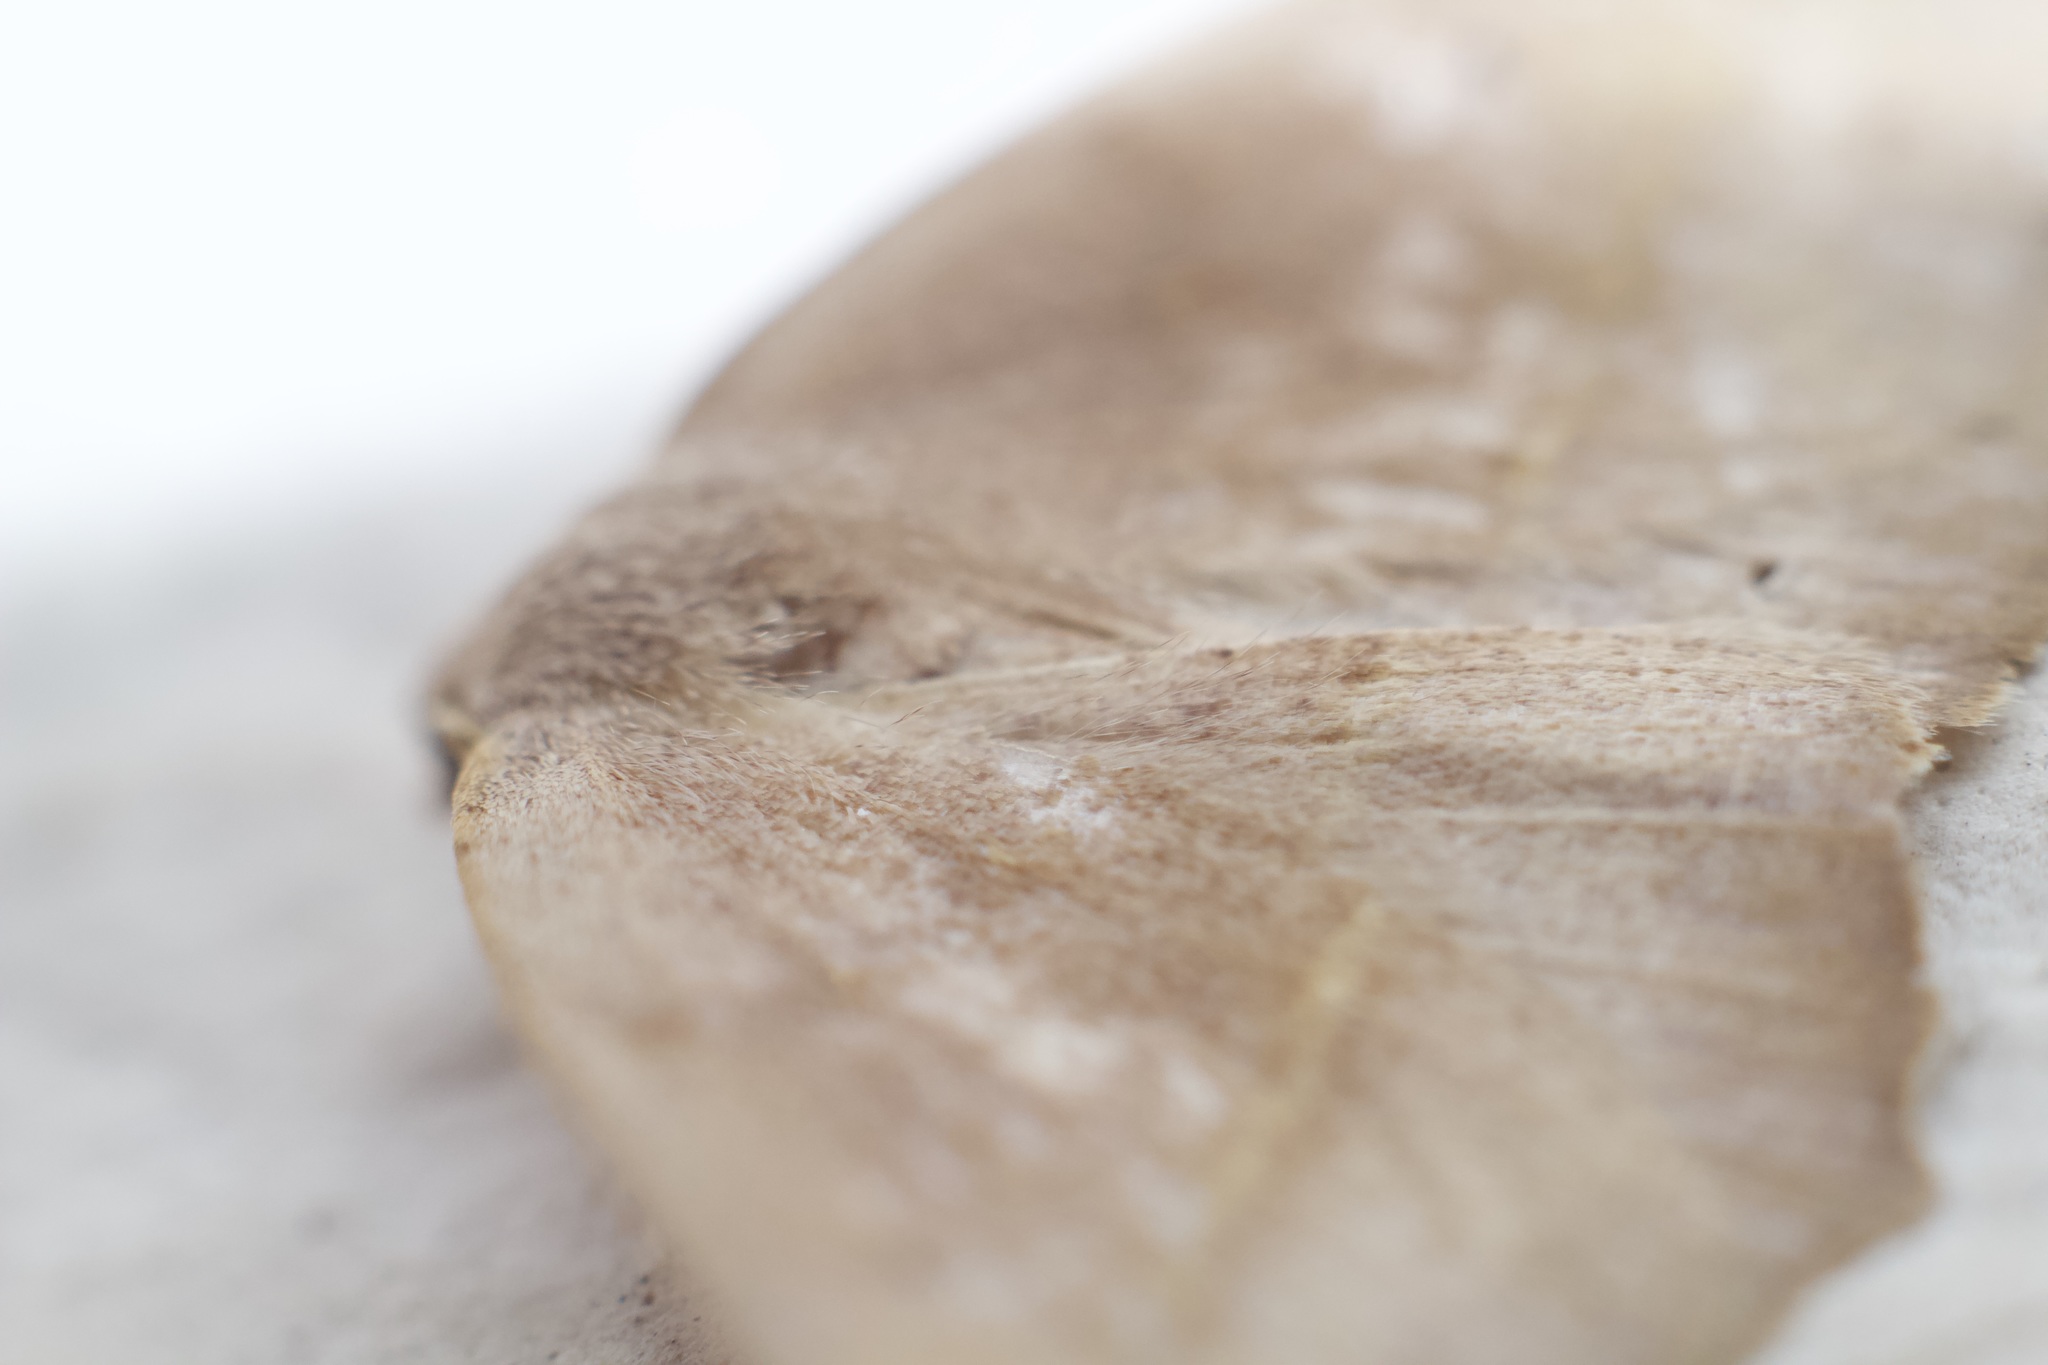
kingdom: Animalia
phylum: Arthropoda
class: Insecta
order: Lepidoptera
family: Geometridae
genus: Syncirsodes
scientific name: Syncirsodes primata
